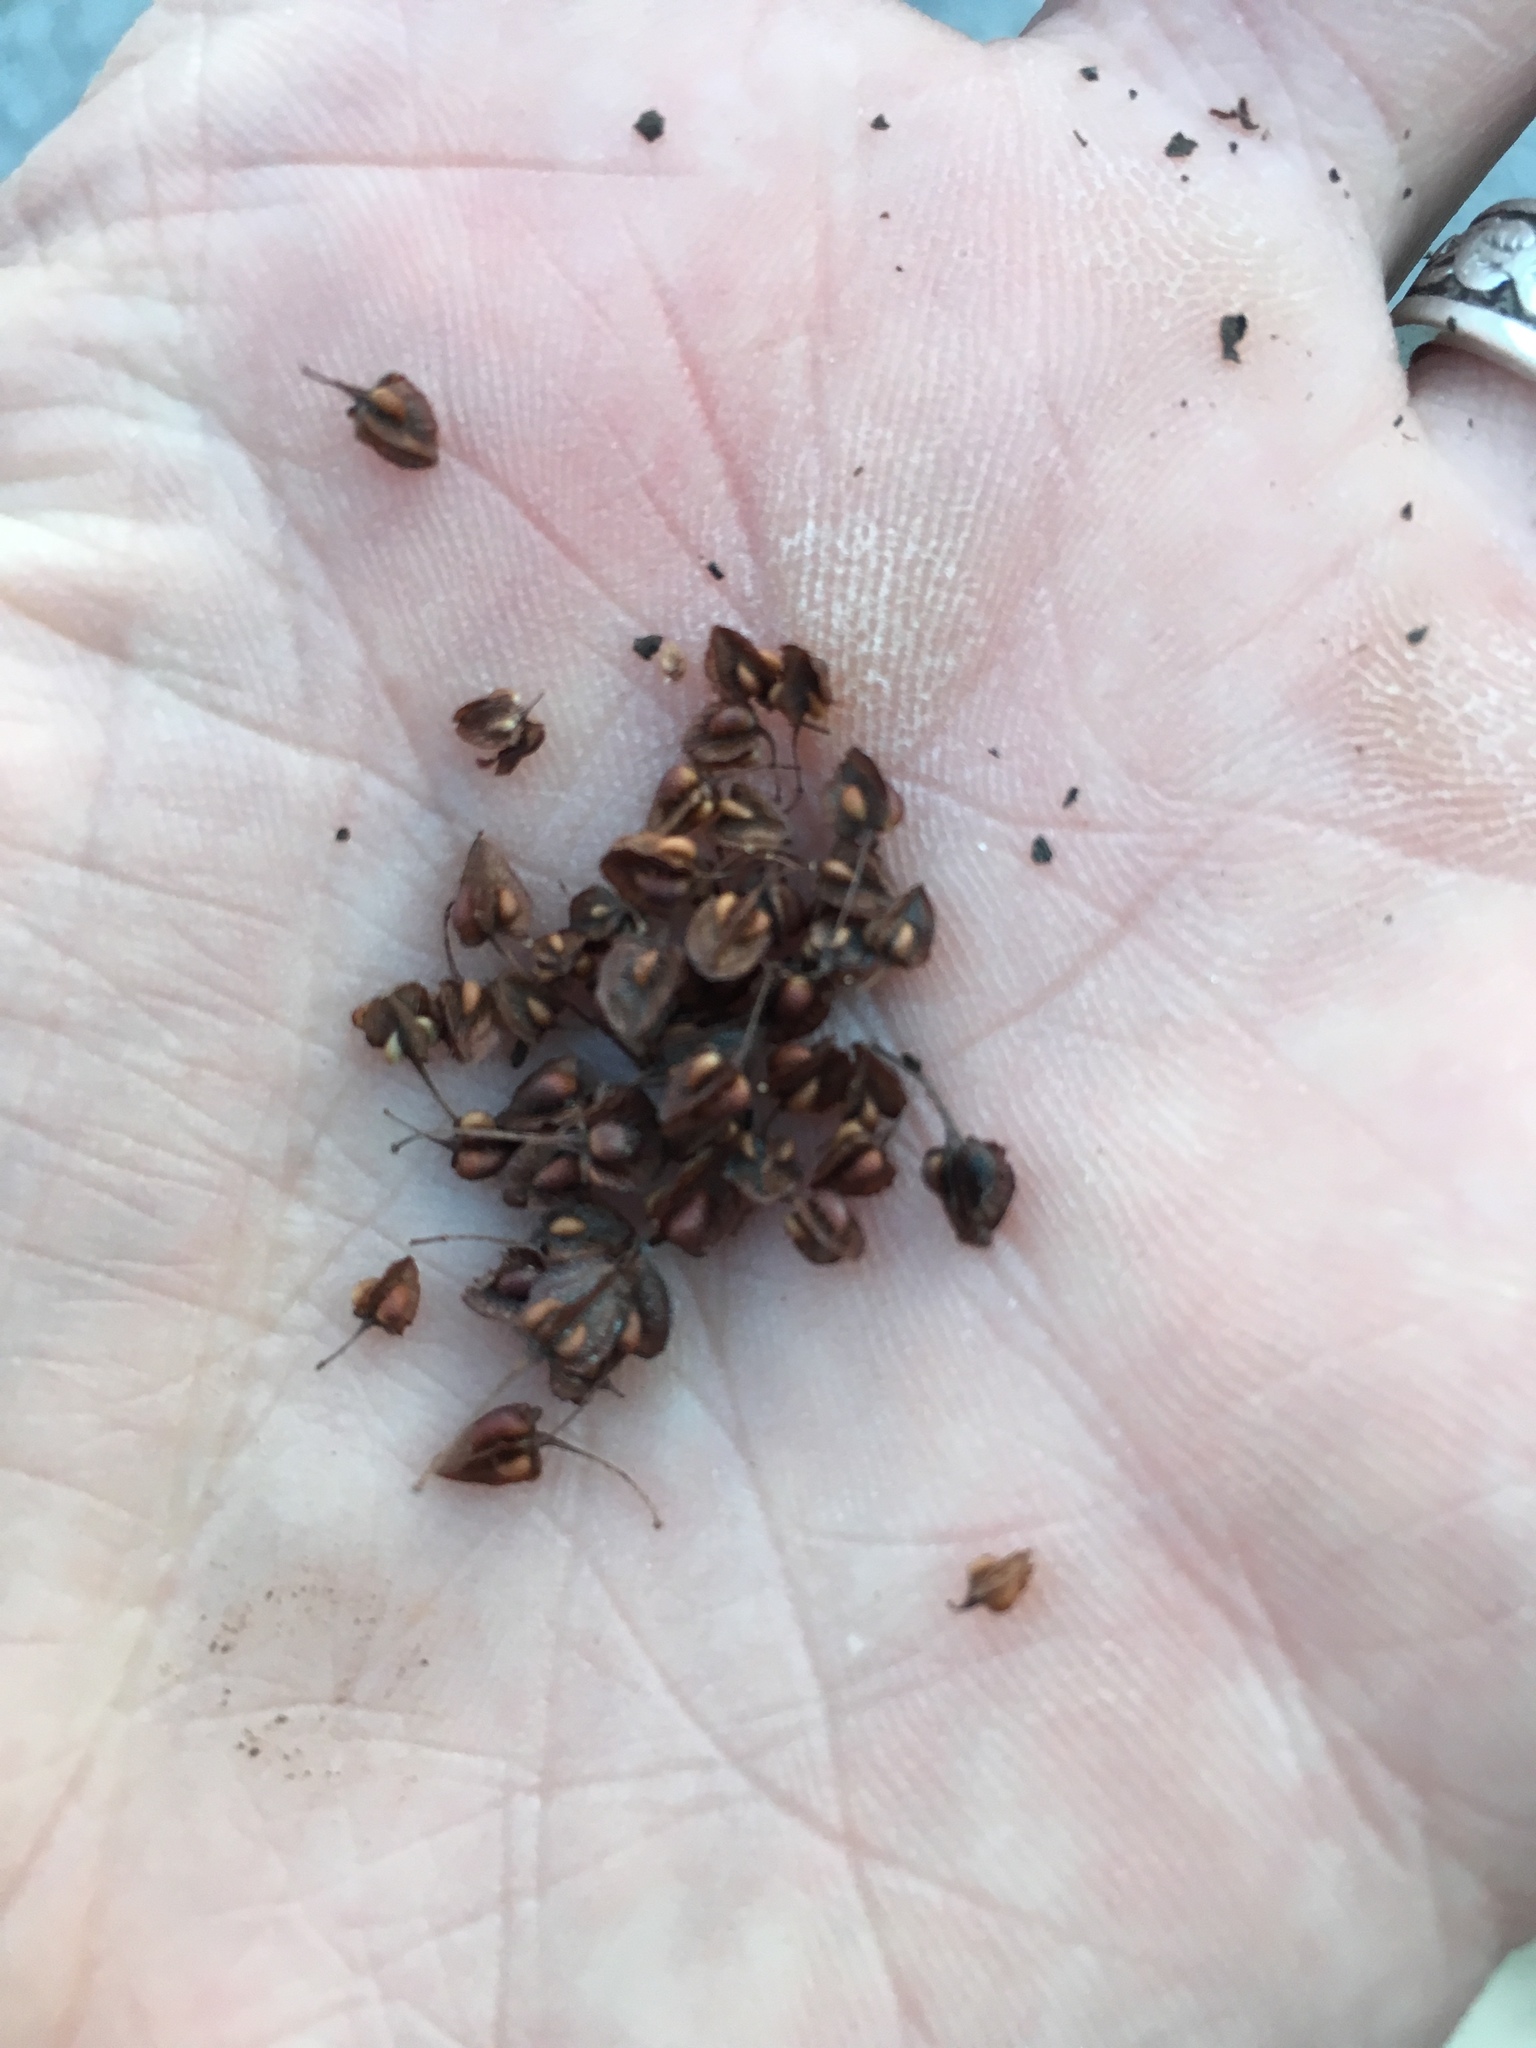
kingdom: Plantae
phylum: Tracheophyta
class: Magnoliopsida
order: Caryophyllales
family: Polygonaceae
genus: Rumex
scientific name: Rumex crispus
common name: Curled dock
